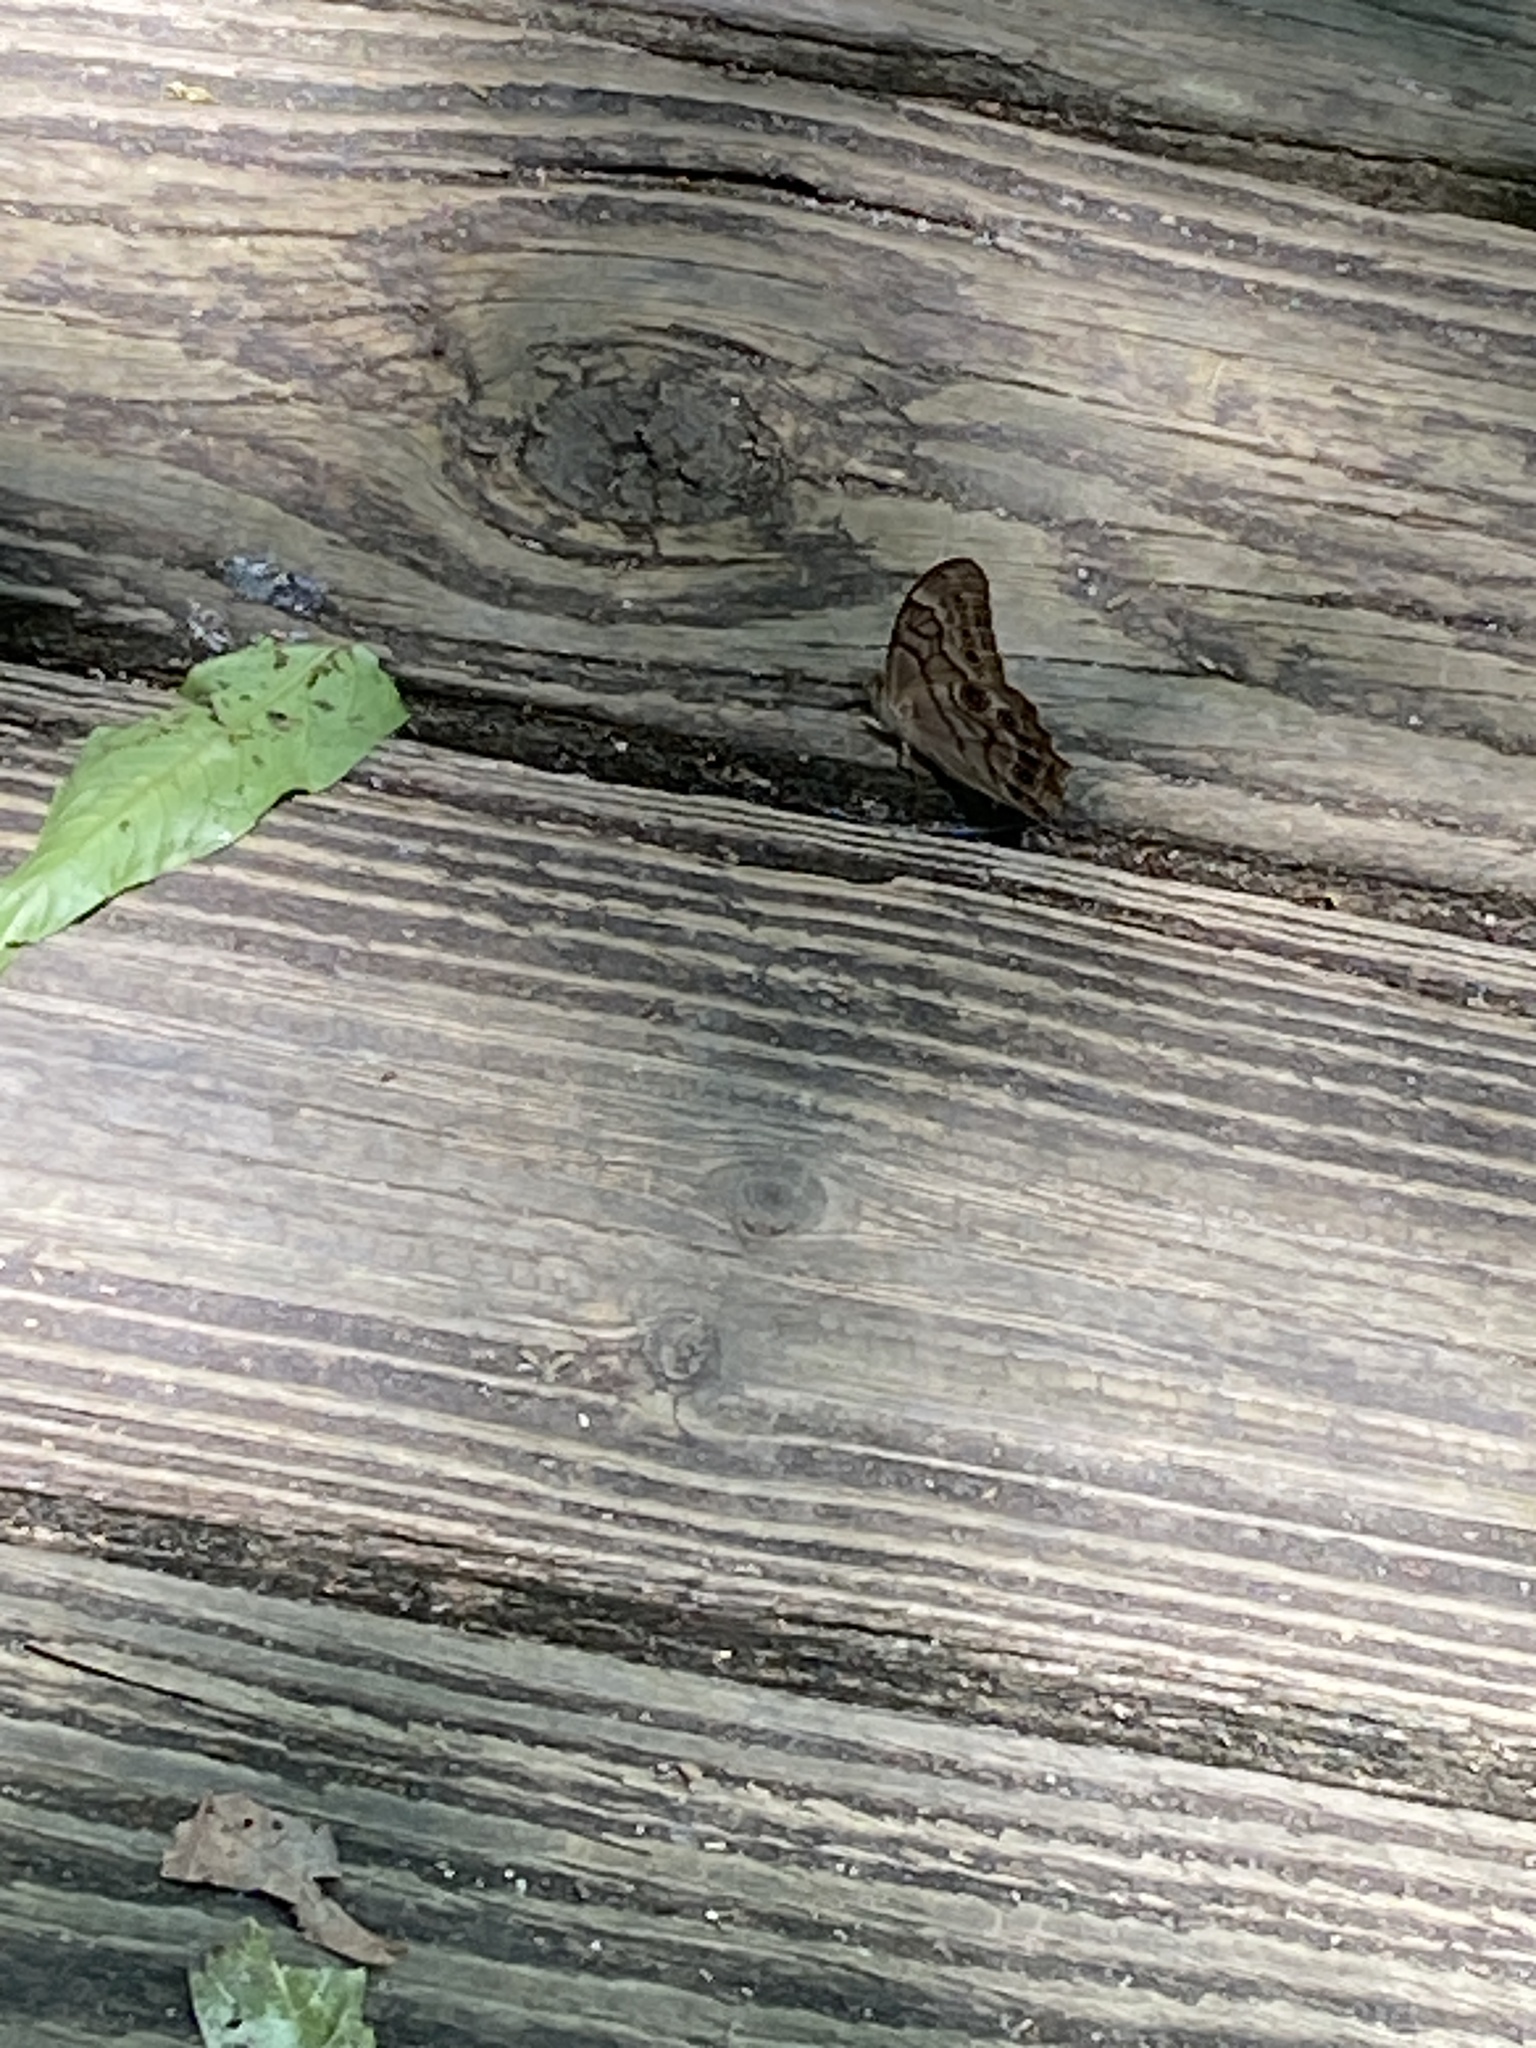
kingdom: Animalia
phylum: Arthropoda
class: Insecta
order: Lepidoptera
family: Nymphalidae
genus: Lethe
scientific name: Lethe creola
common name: Creole pearly-eye
